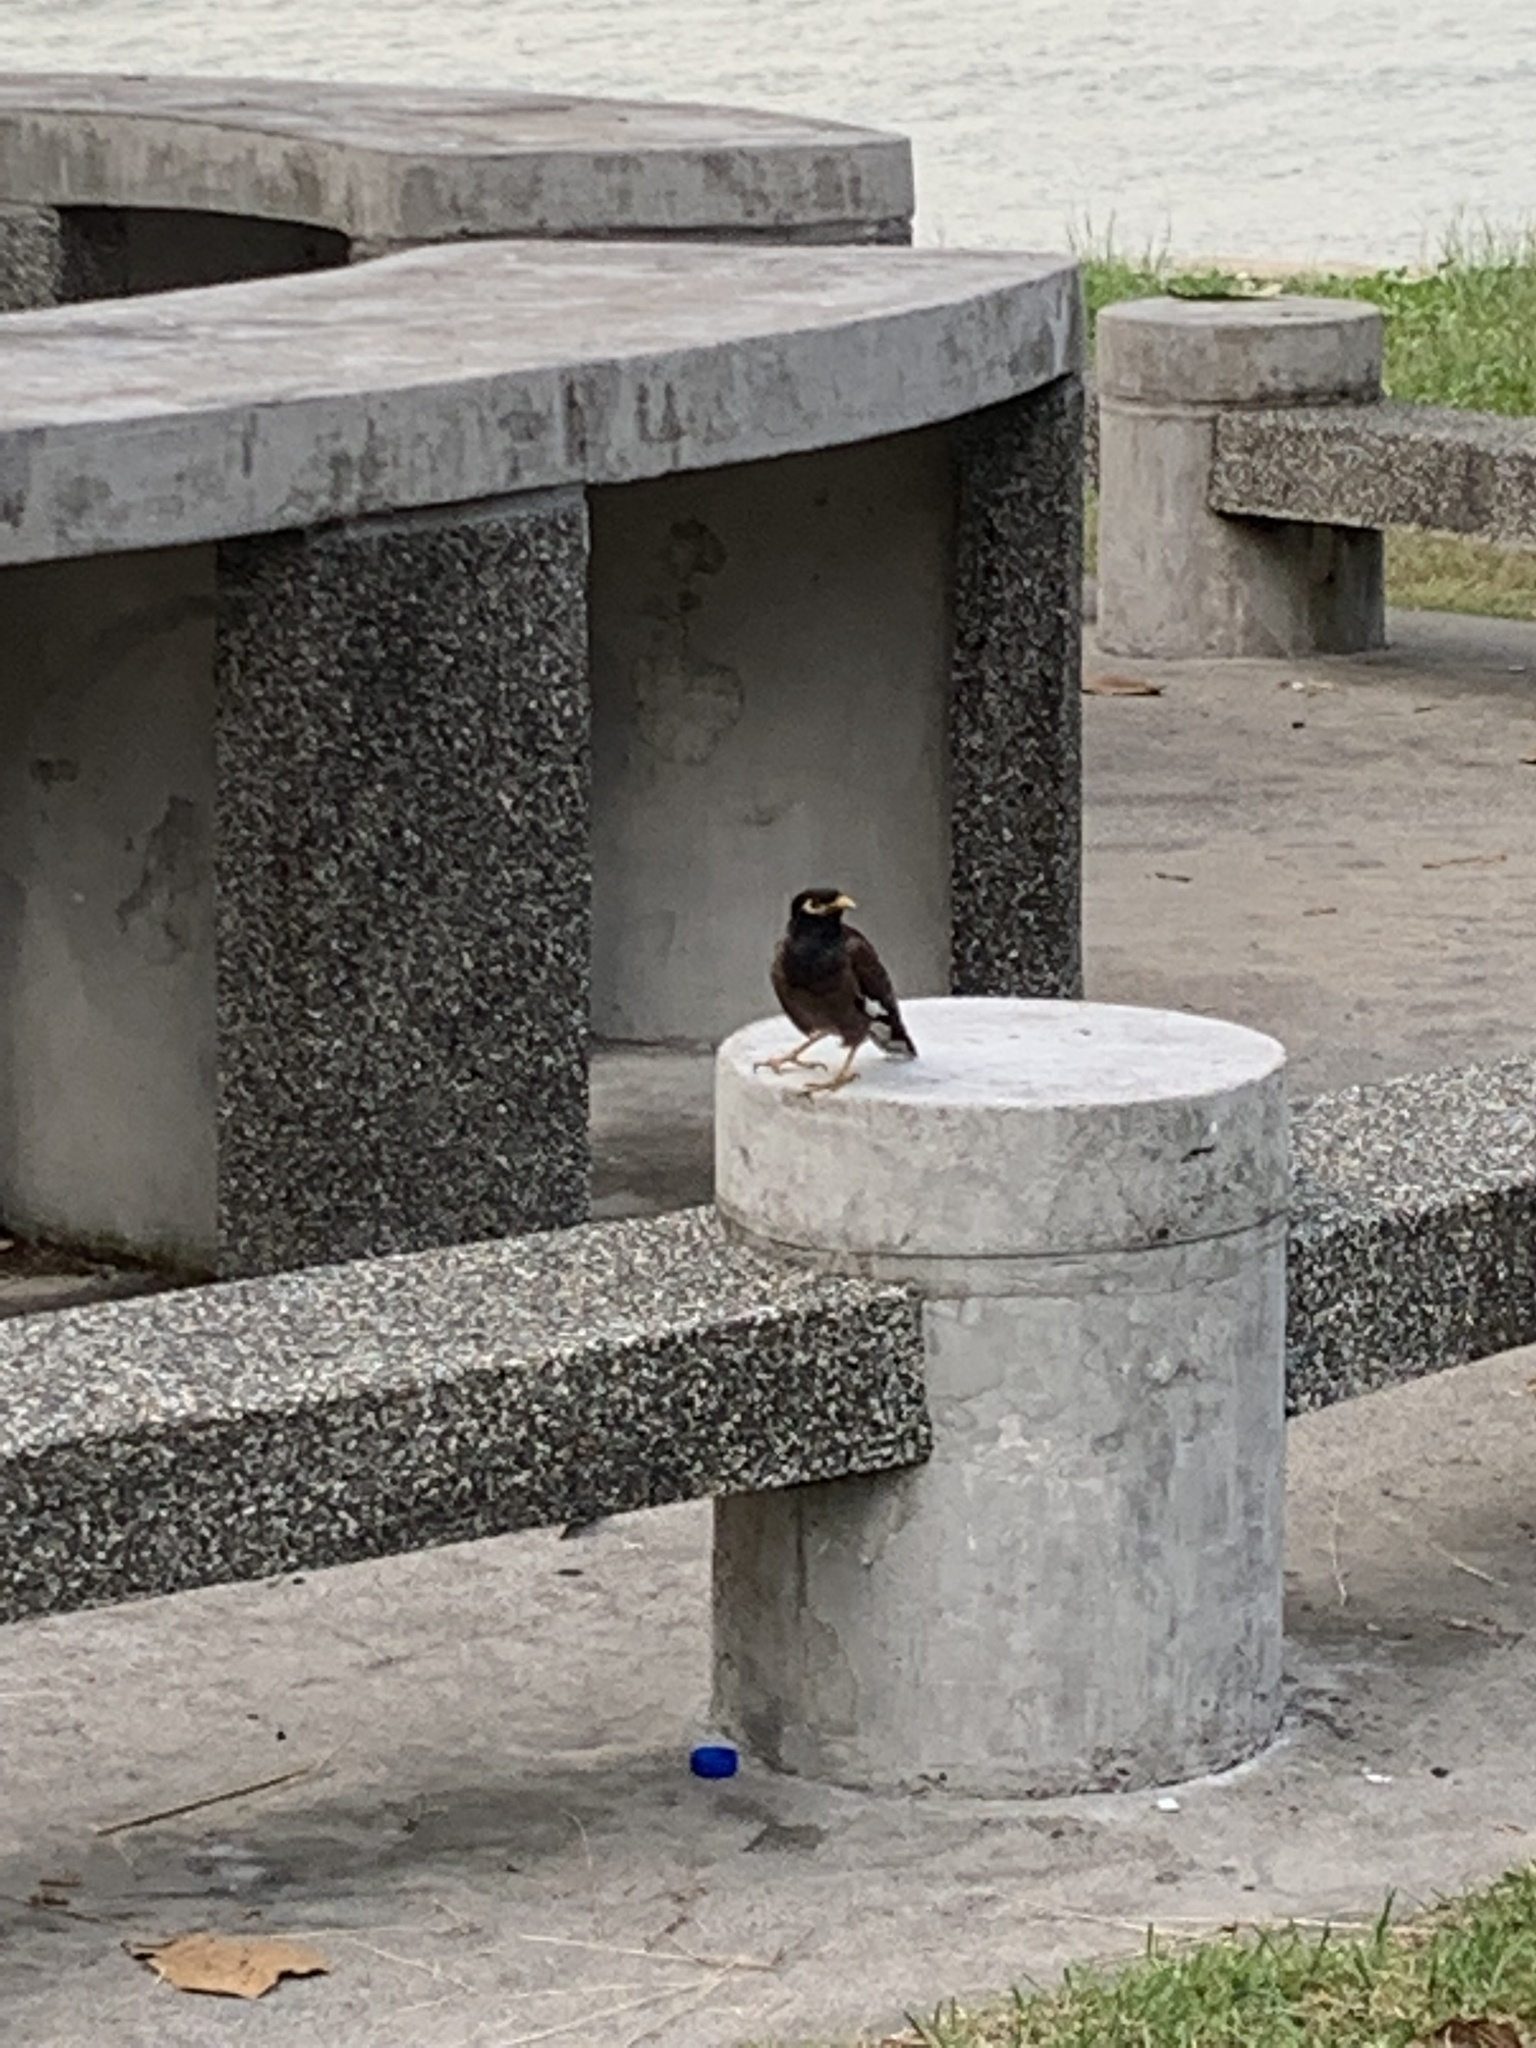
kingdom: Animalia
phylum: Chordata
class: Aves
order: Passeriformes
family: Sturnidae
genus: Acridotheres
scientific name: Acridotheres tristis
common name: Common myna
